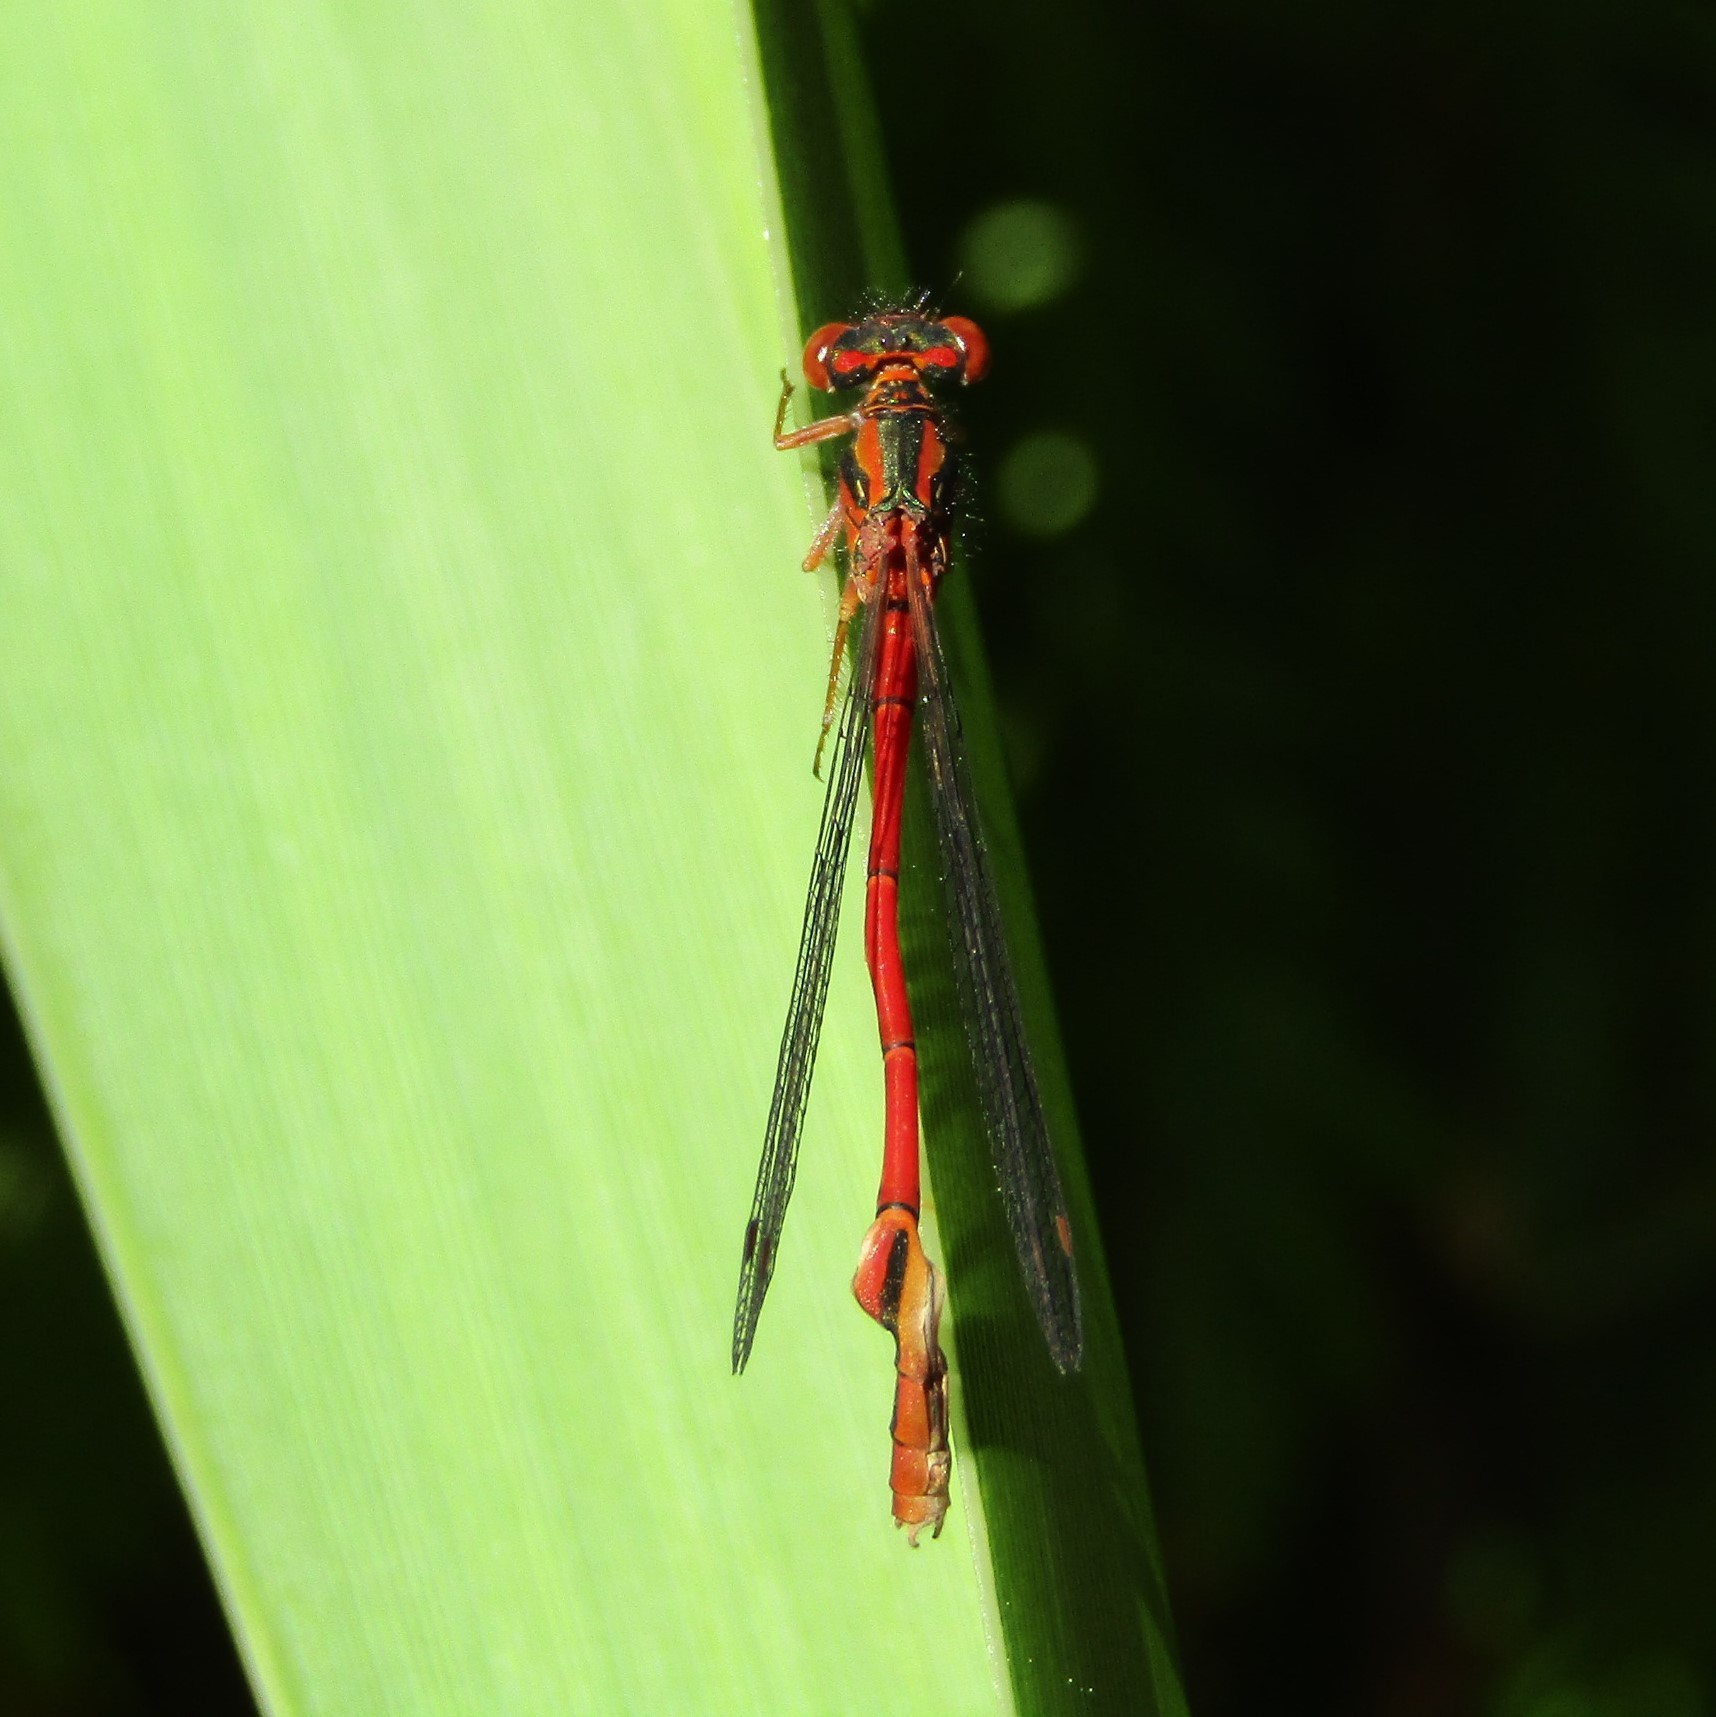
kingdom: Animalia
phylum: Arthropoda
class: Insecta
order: Odonata
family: Coenagrionidae
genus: Xanthocnemis
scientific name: Xanthocnemis zealandica
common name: Common redcoat damselfly
